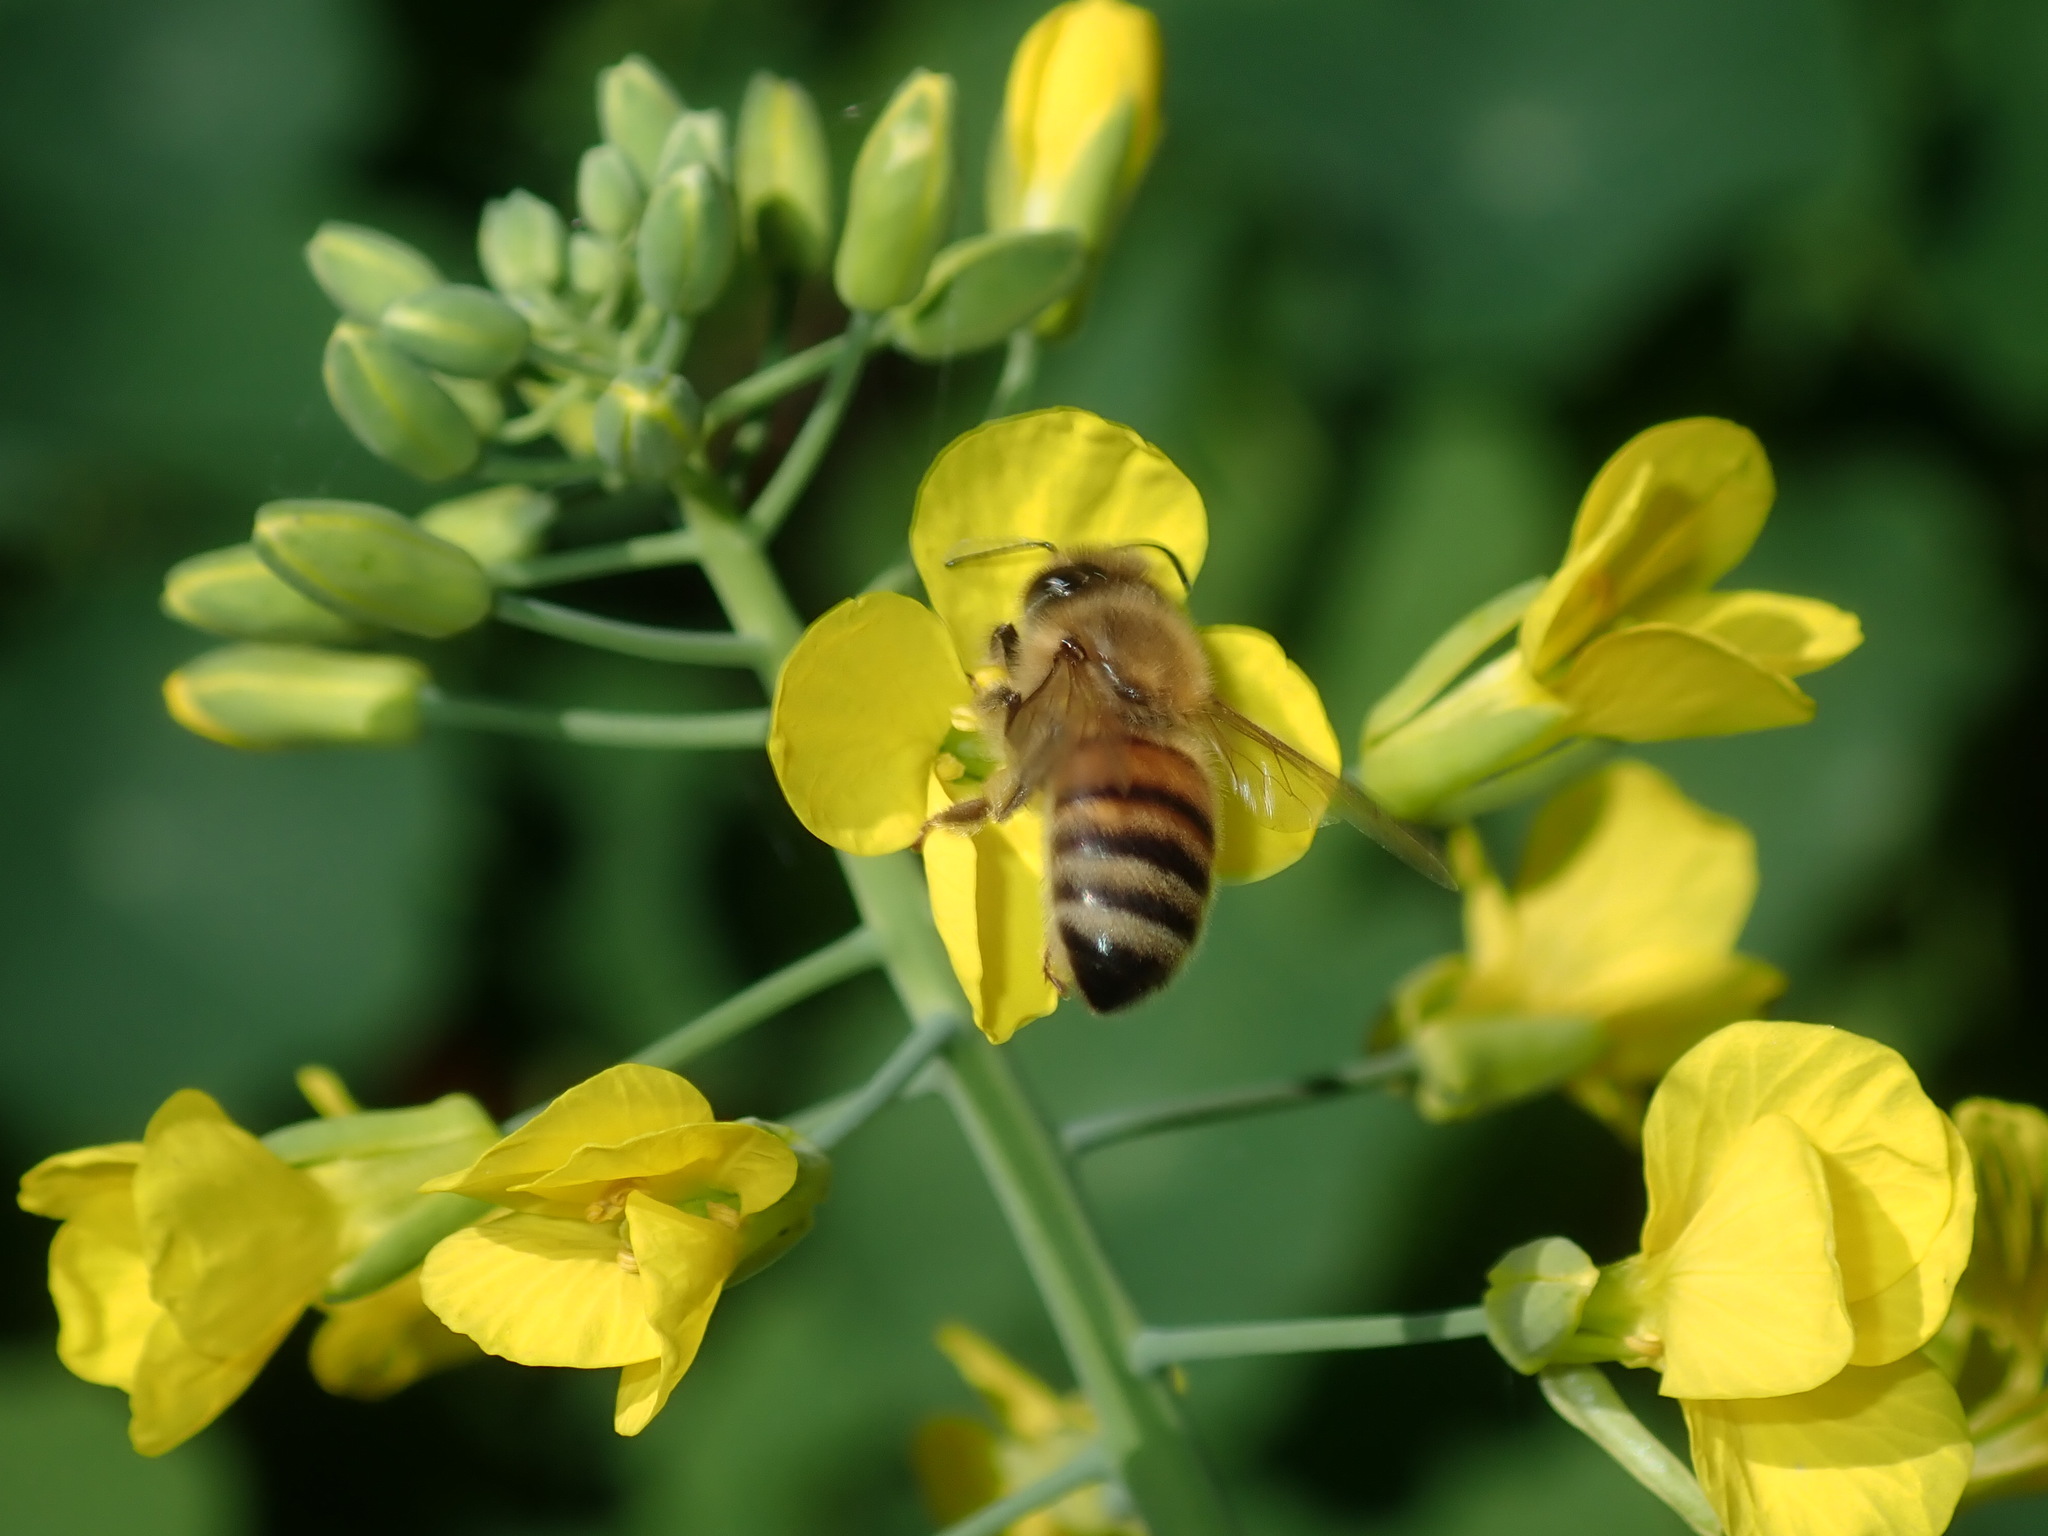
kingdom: Animalia
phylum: Arthropoda
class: Insecta
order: Hymenoptera
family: Apidae
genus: Apis
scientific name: Apis mellifera
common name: Honey bee
